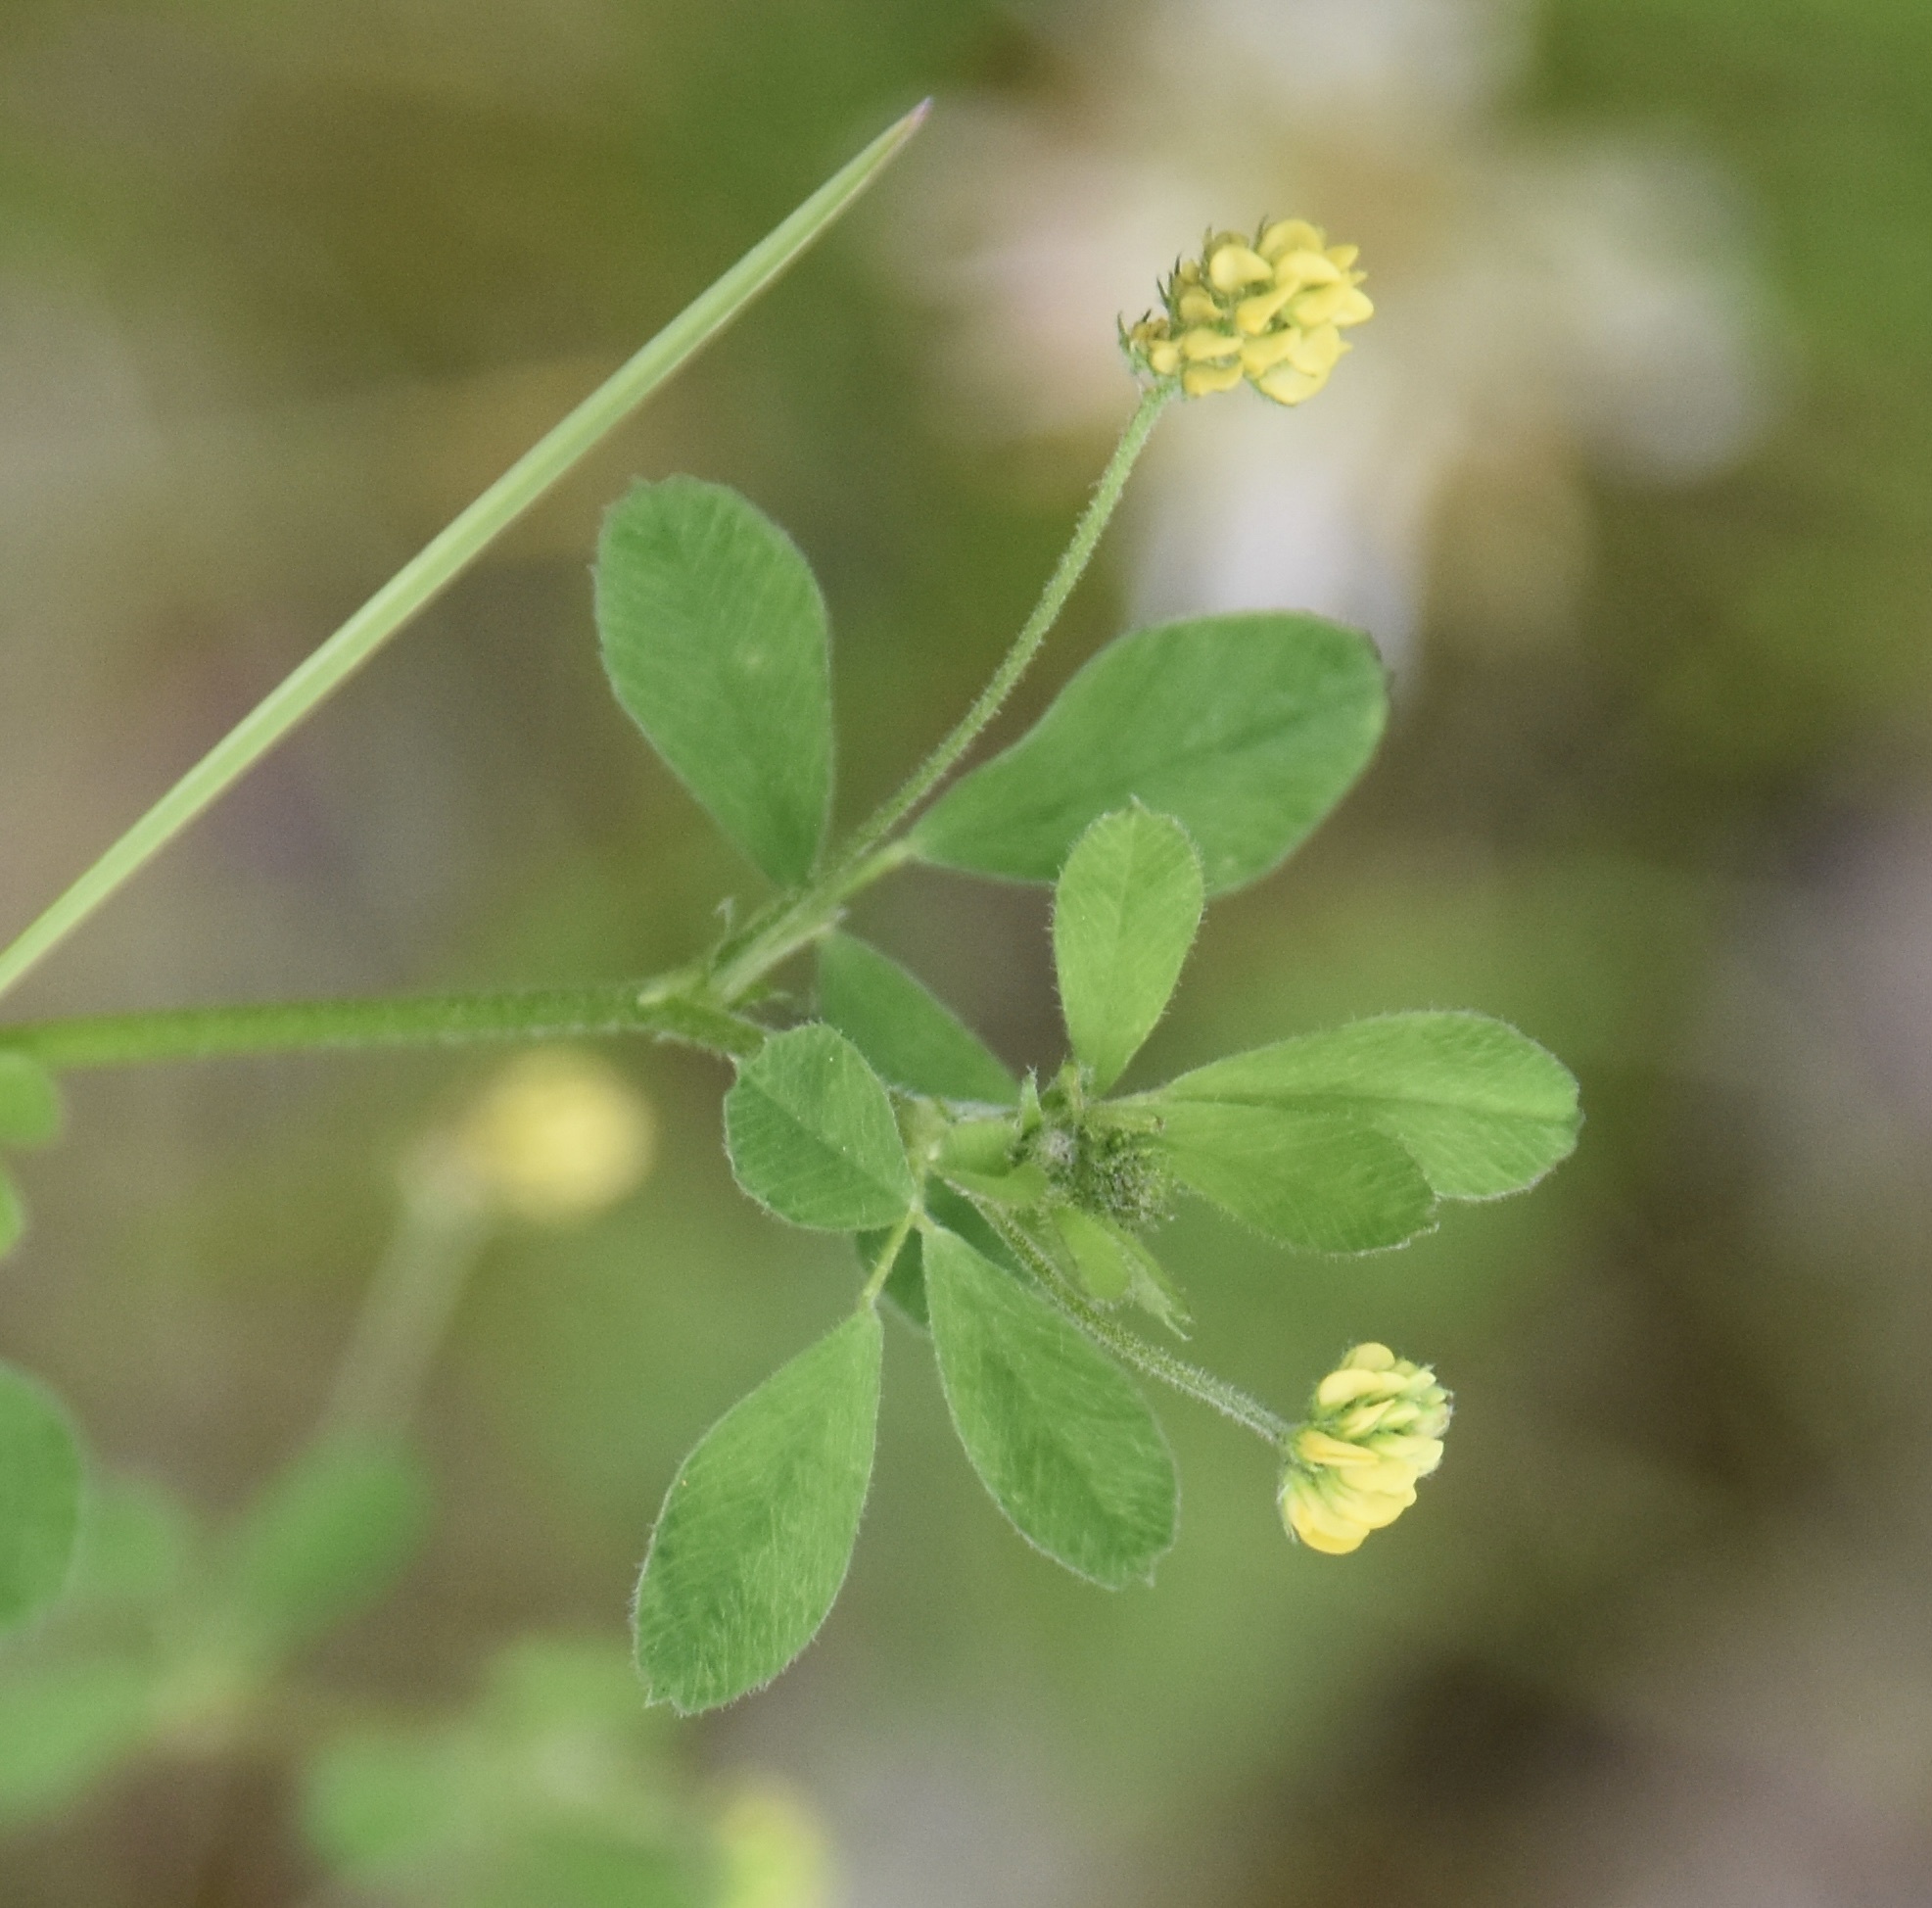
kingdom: Plantae
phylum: Tracheophyta
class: Magnoliopsida
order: Fabales
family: Fabaceae
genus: Medicago
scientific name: Medicago lupulina
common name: Black medick
